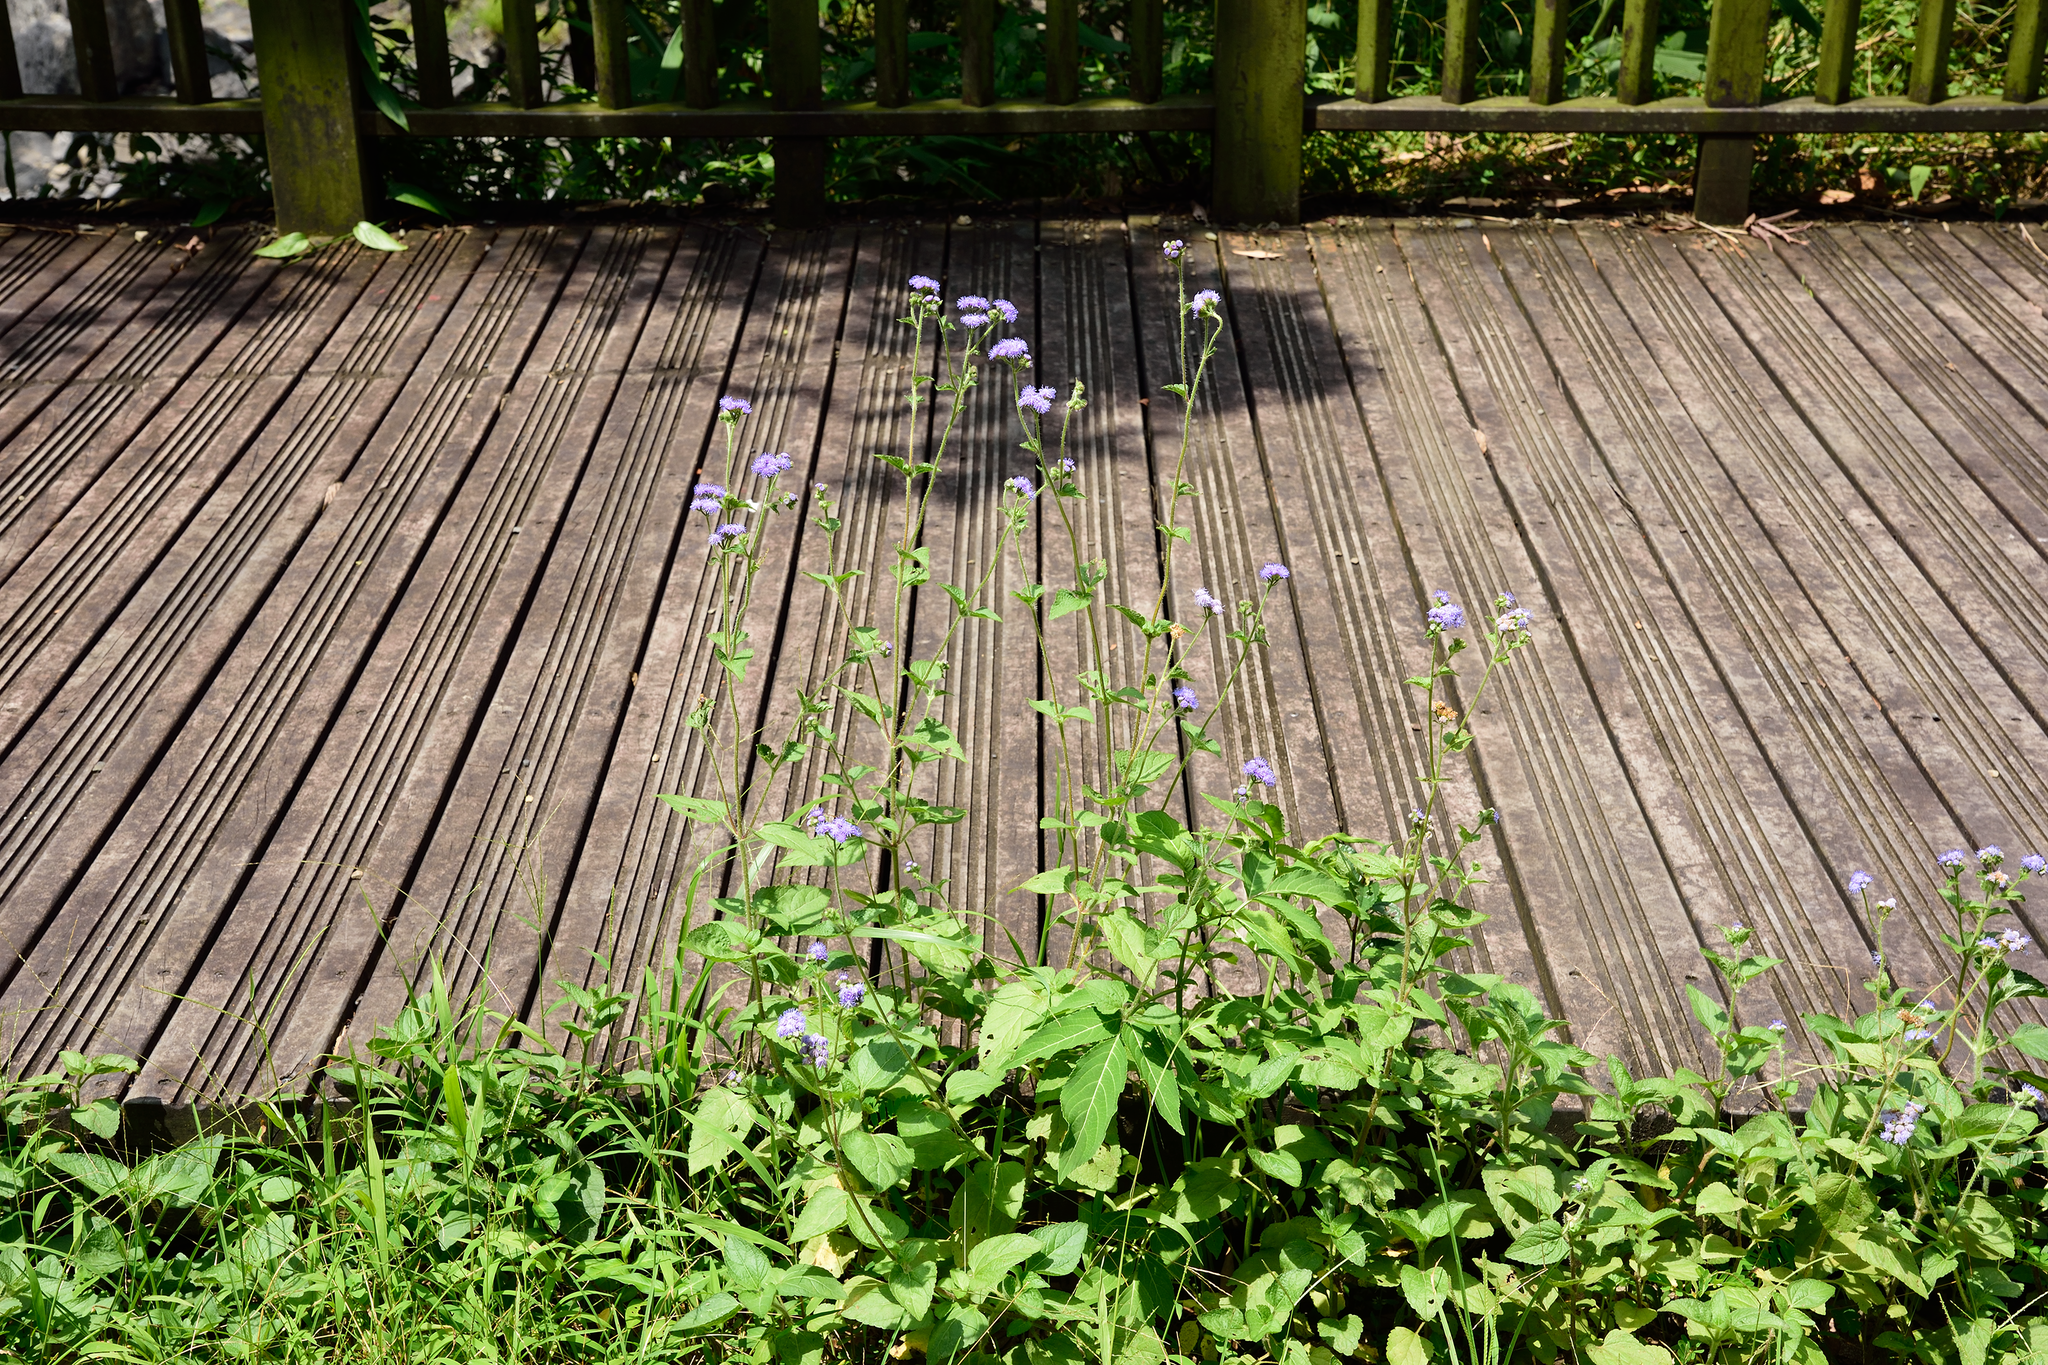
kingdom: Plantae
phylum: Tracheophyta
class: Magnoliopsida
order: Asterales
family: Asteraceae
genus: Ageratum
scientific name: Ageratum houstonianum
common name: Bluemink
